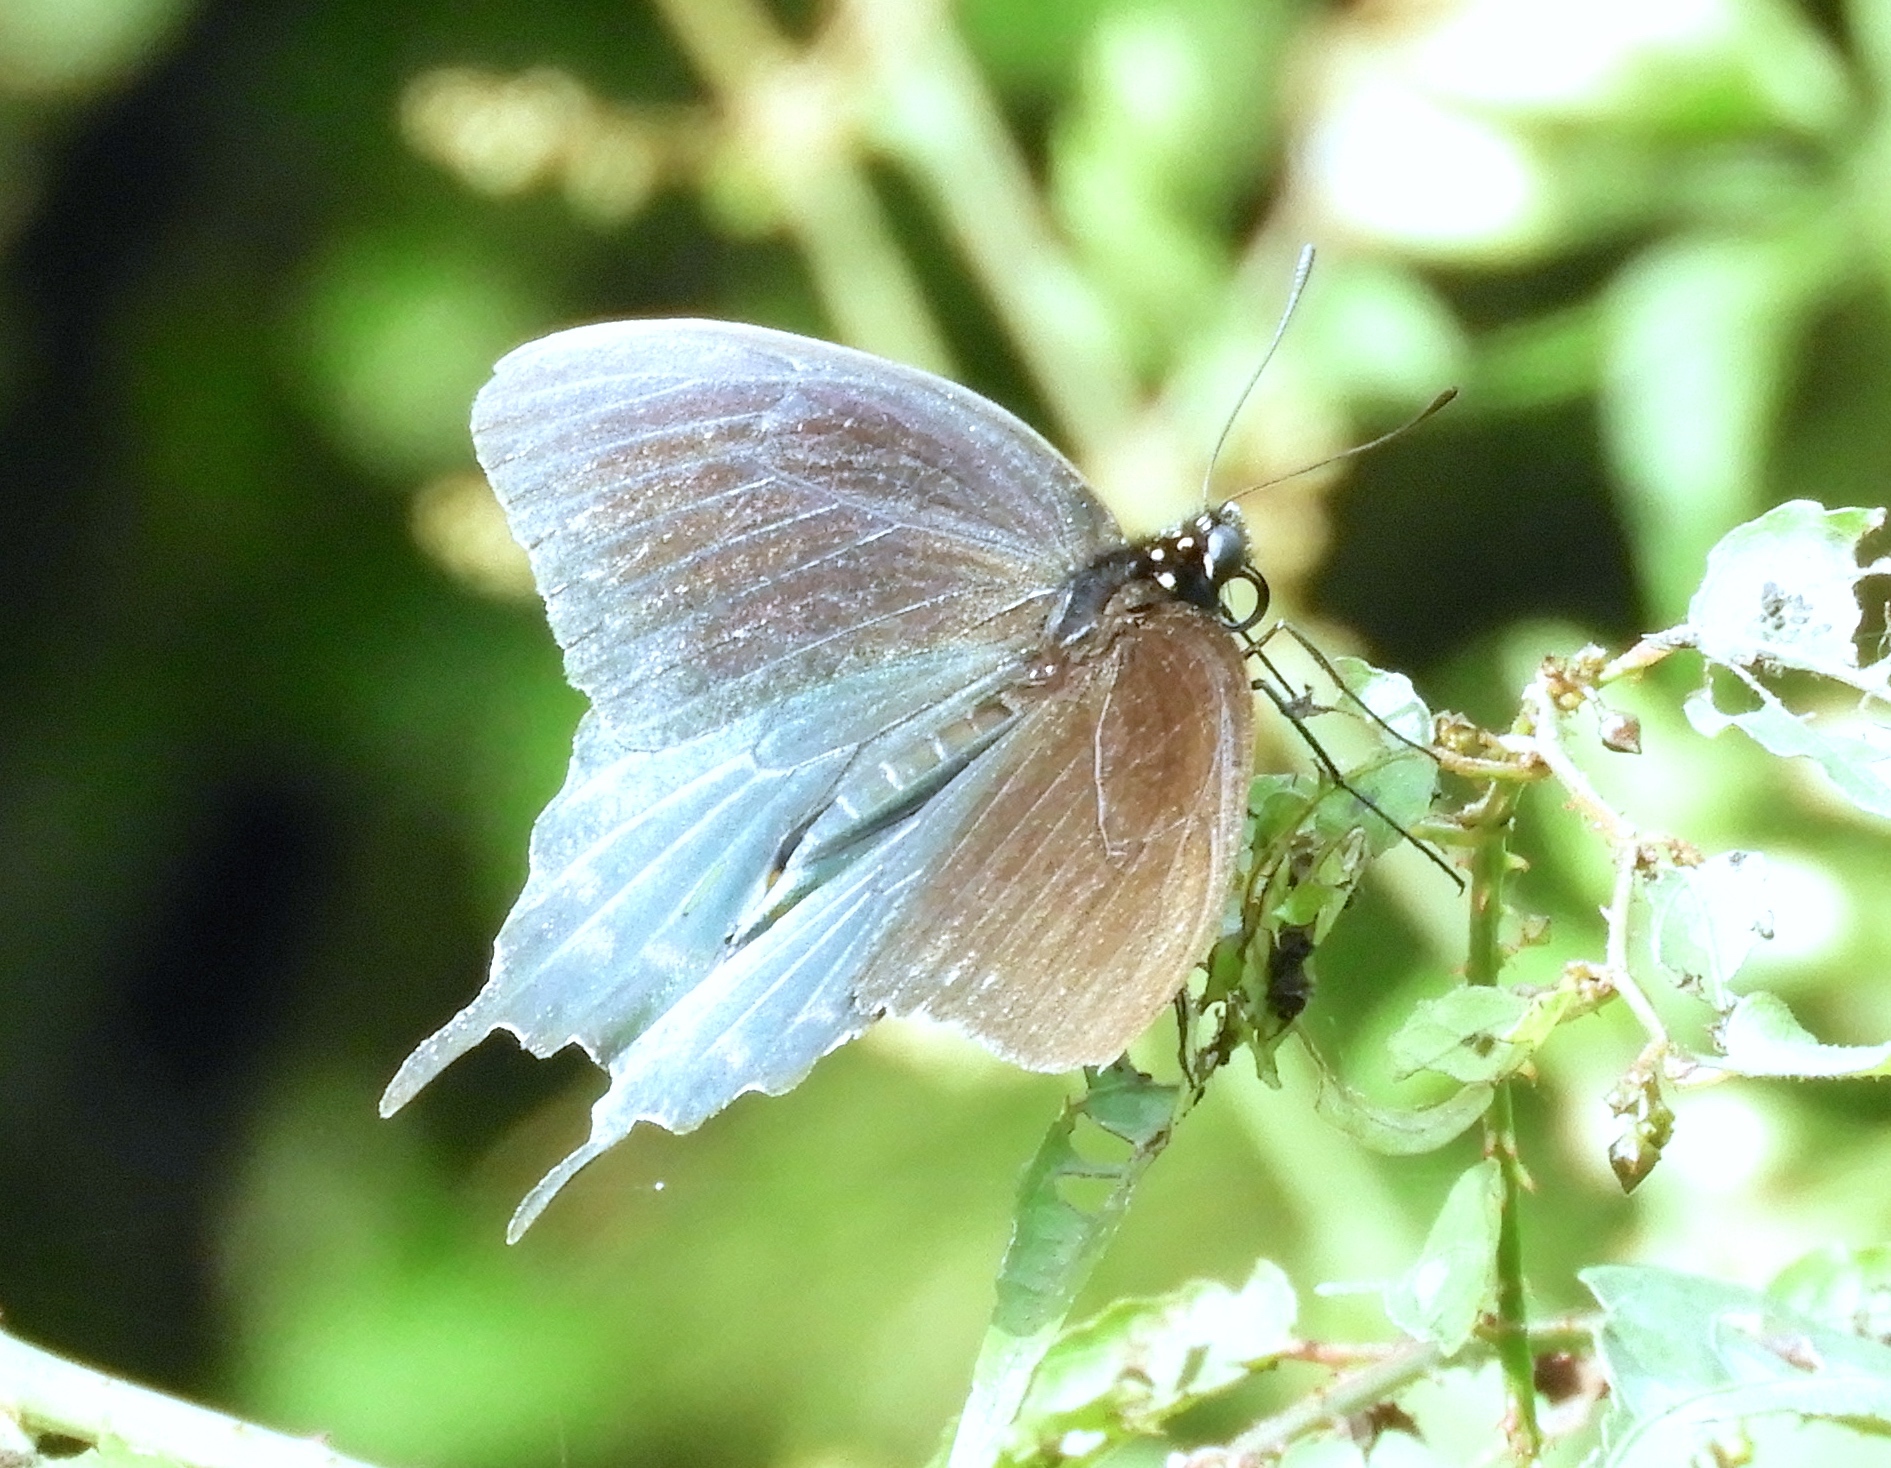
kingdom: Animalia
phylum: Arthropoda
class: Insecta
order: Lepidoptera
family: Papilionidae
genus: Battus
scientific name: Battus philenor
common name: Pipevine swallowtail
